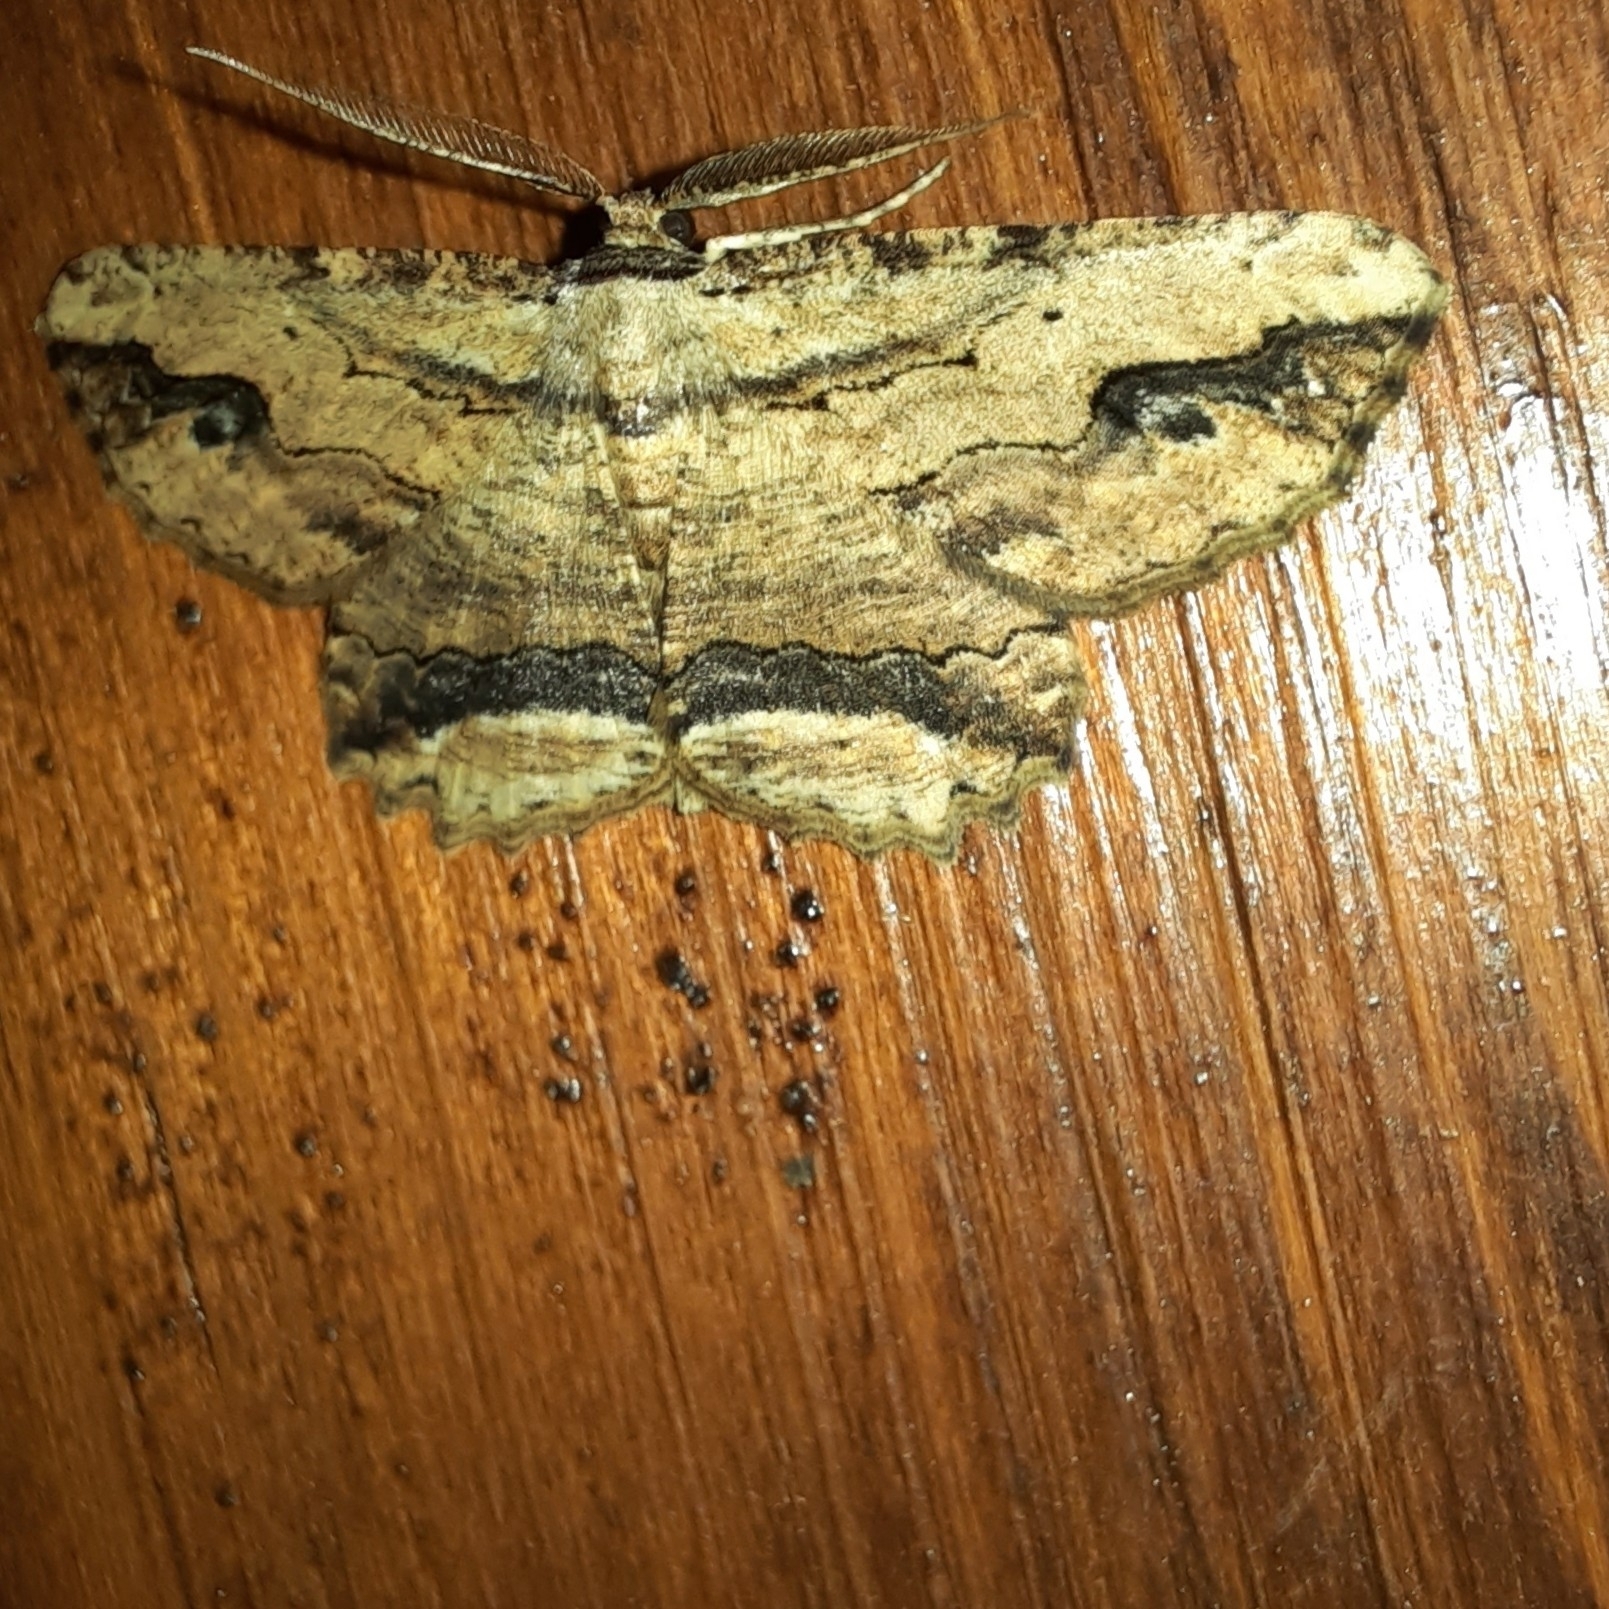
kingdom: Animalia
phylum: Arthropoda
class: Insecta
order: Lepidoptera
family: Geometridae
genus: Menophra
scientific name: Menophra abruptaria
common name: Waved umber
